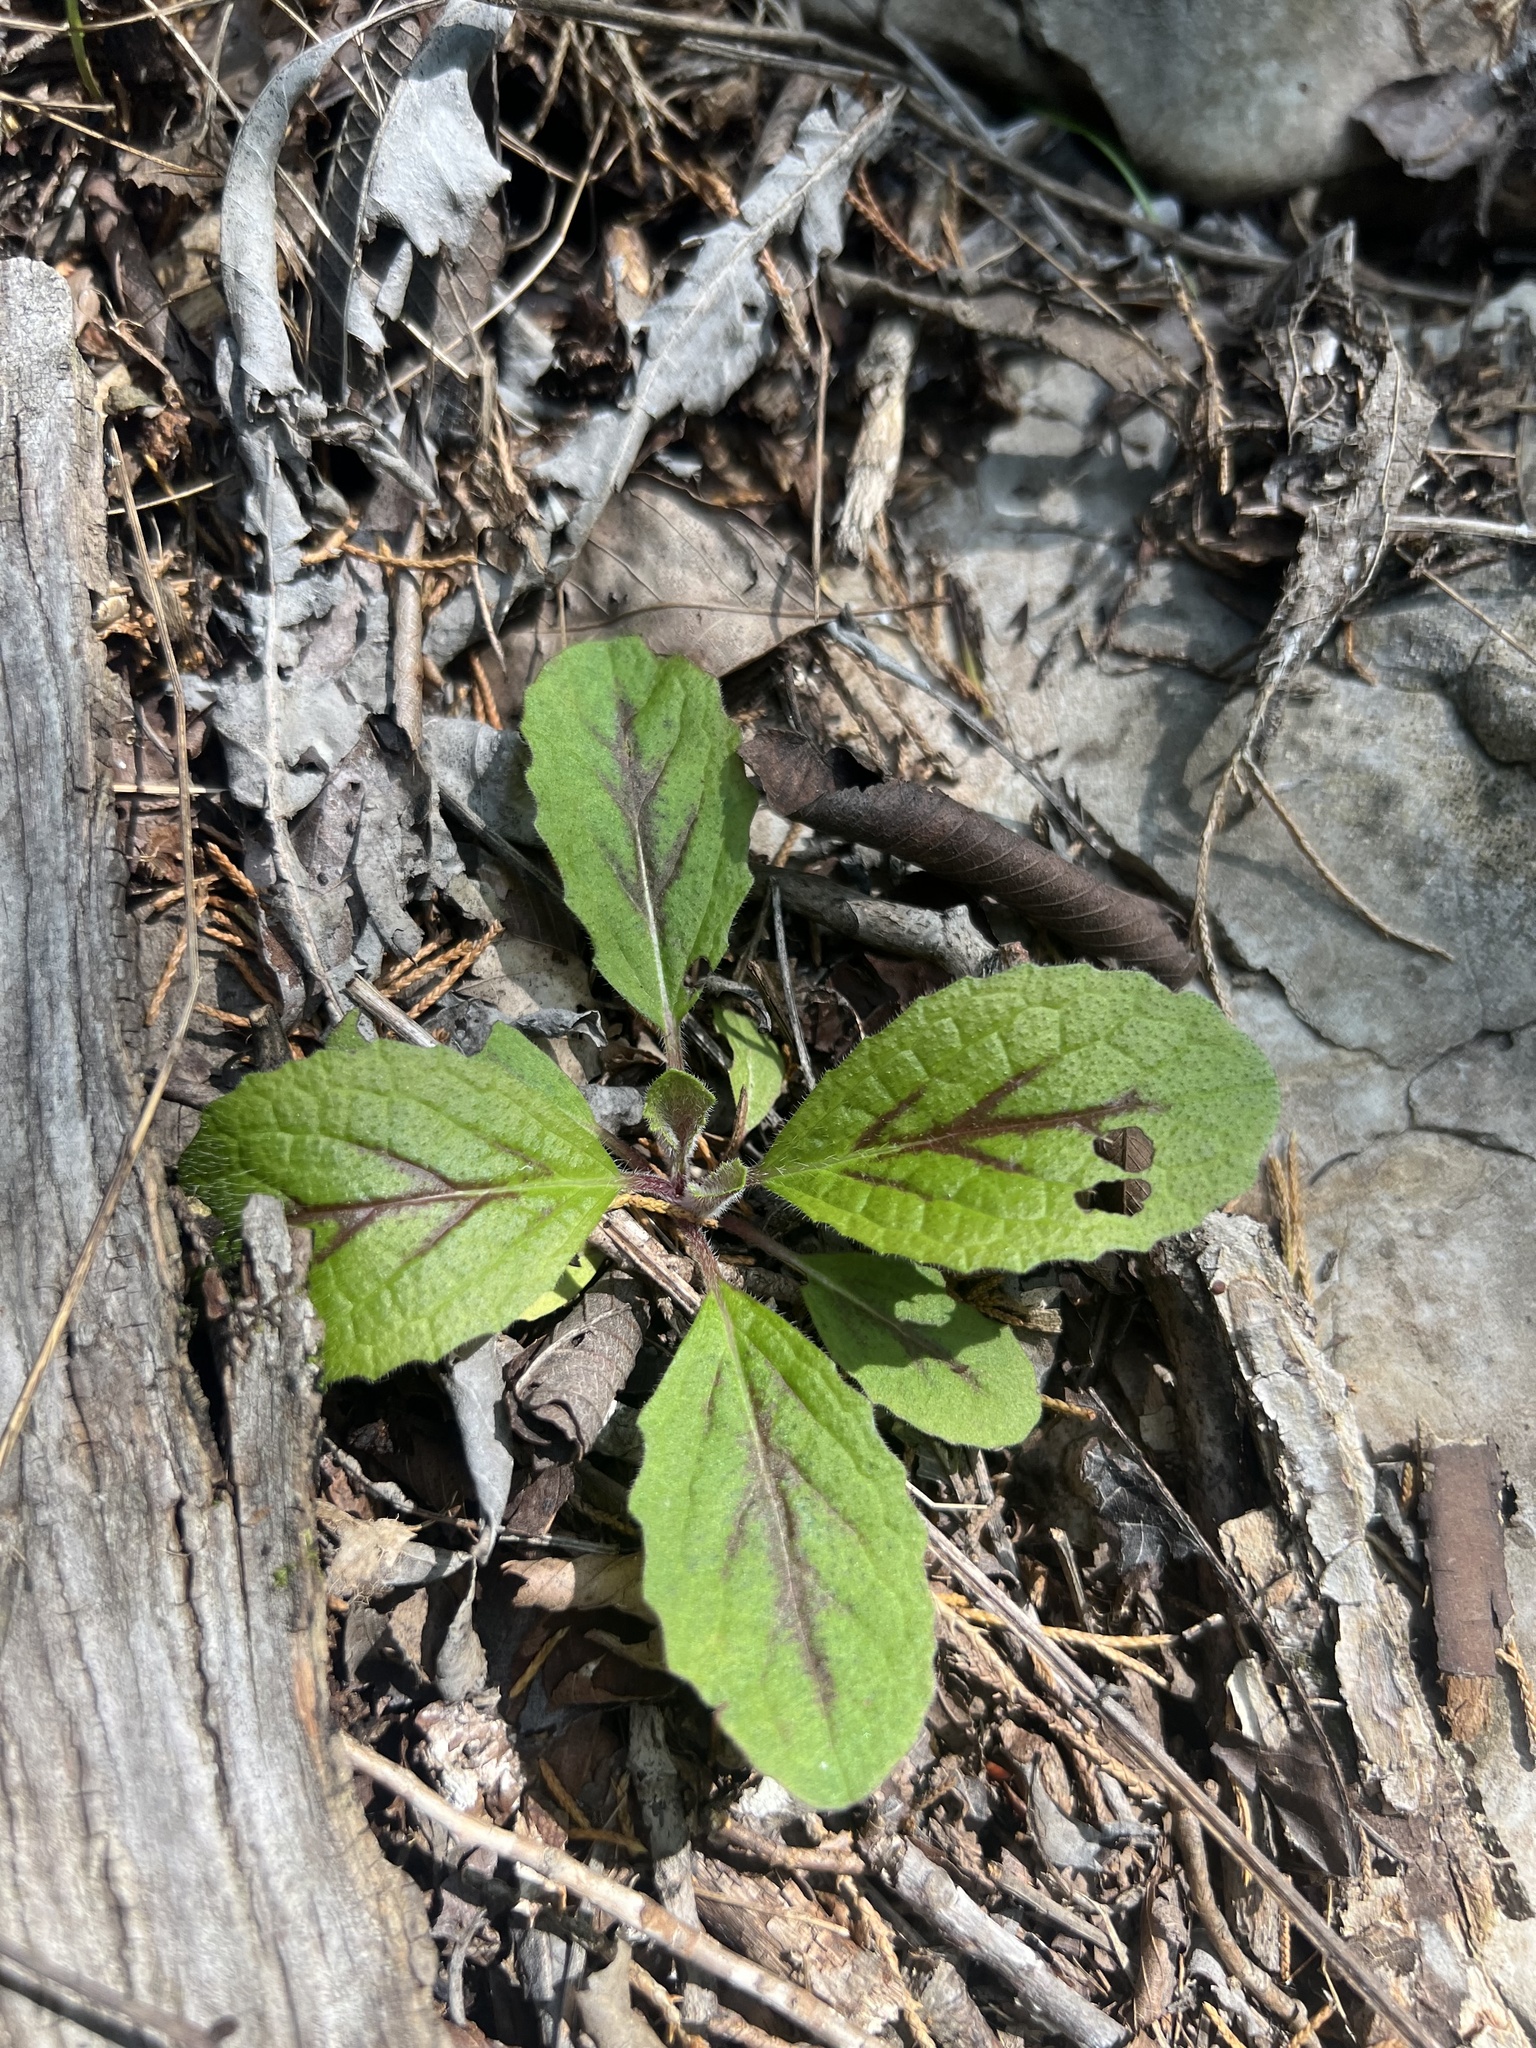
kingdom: Plantae
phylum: Tracheophyta
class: Magnoliopsida
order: Lamiales
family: Lamiaceae
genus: Salvia
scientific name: Salvia lyrata
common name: Cancerweed
